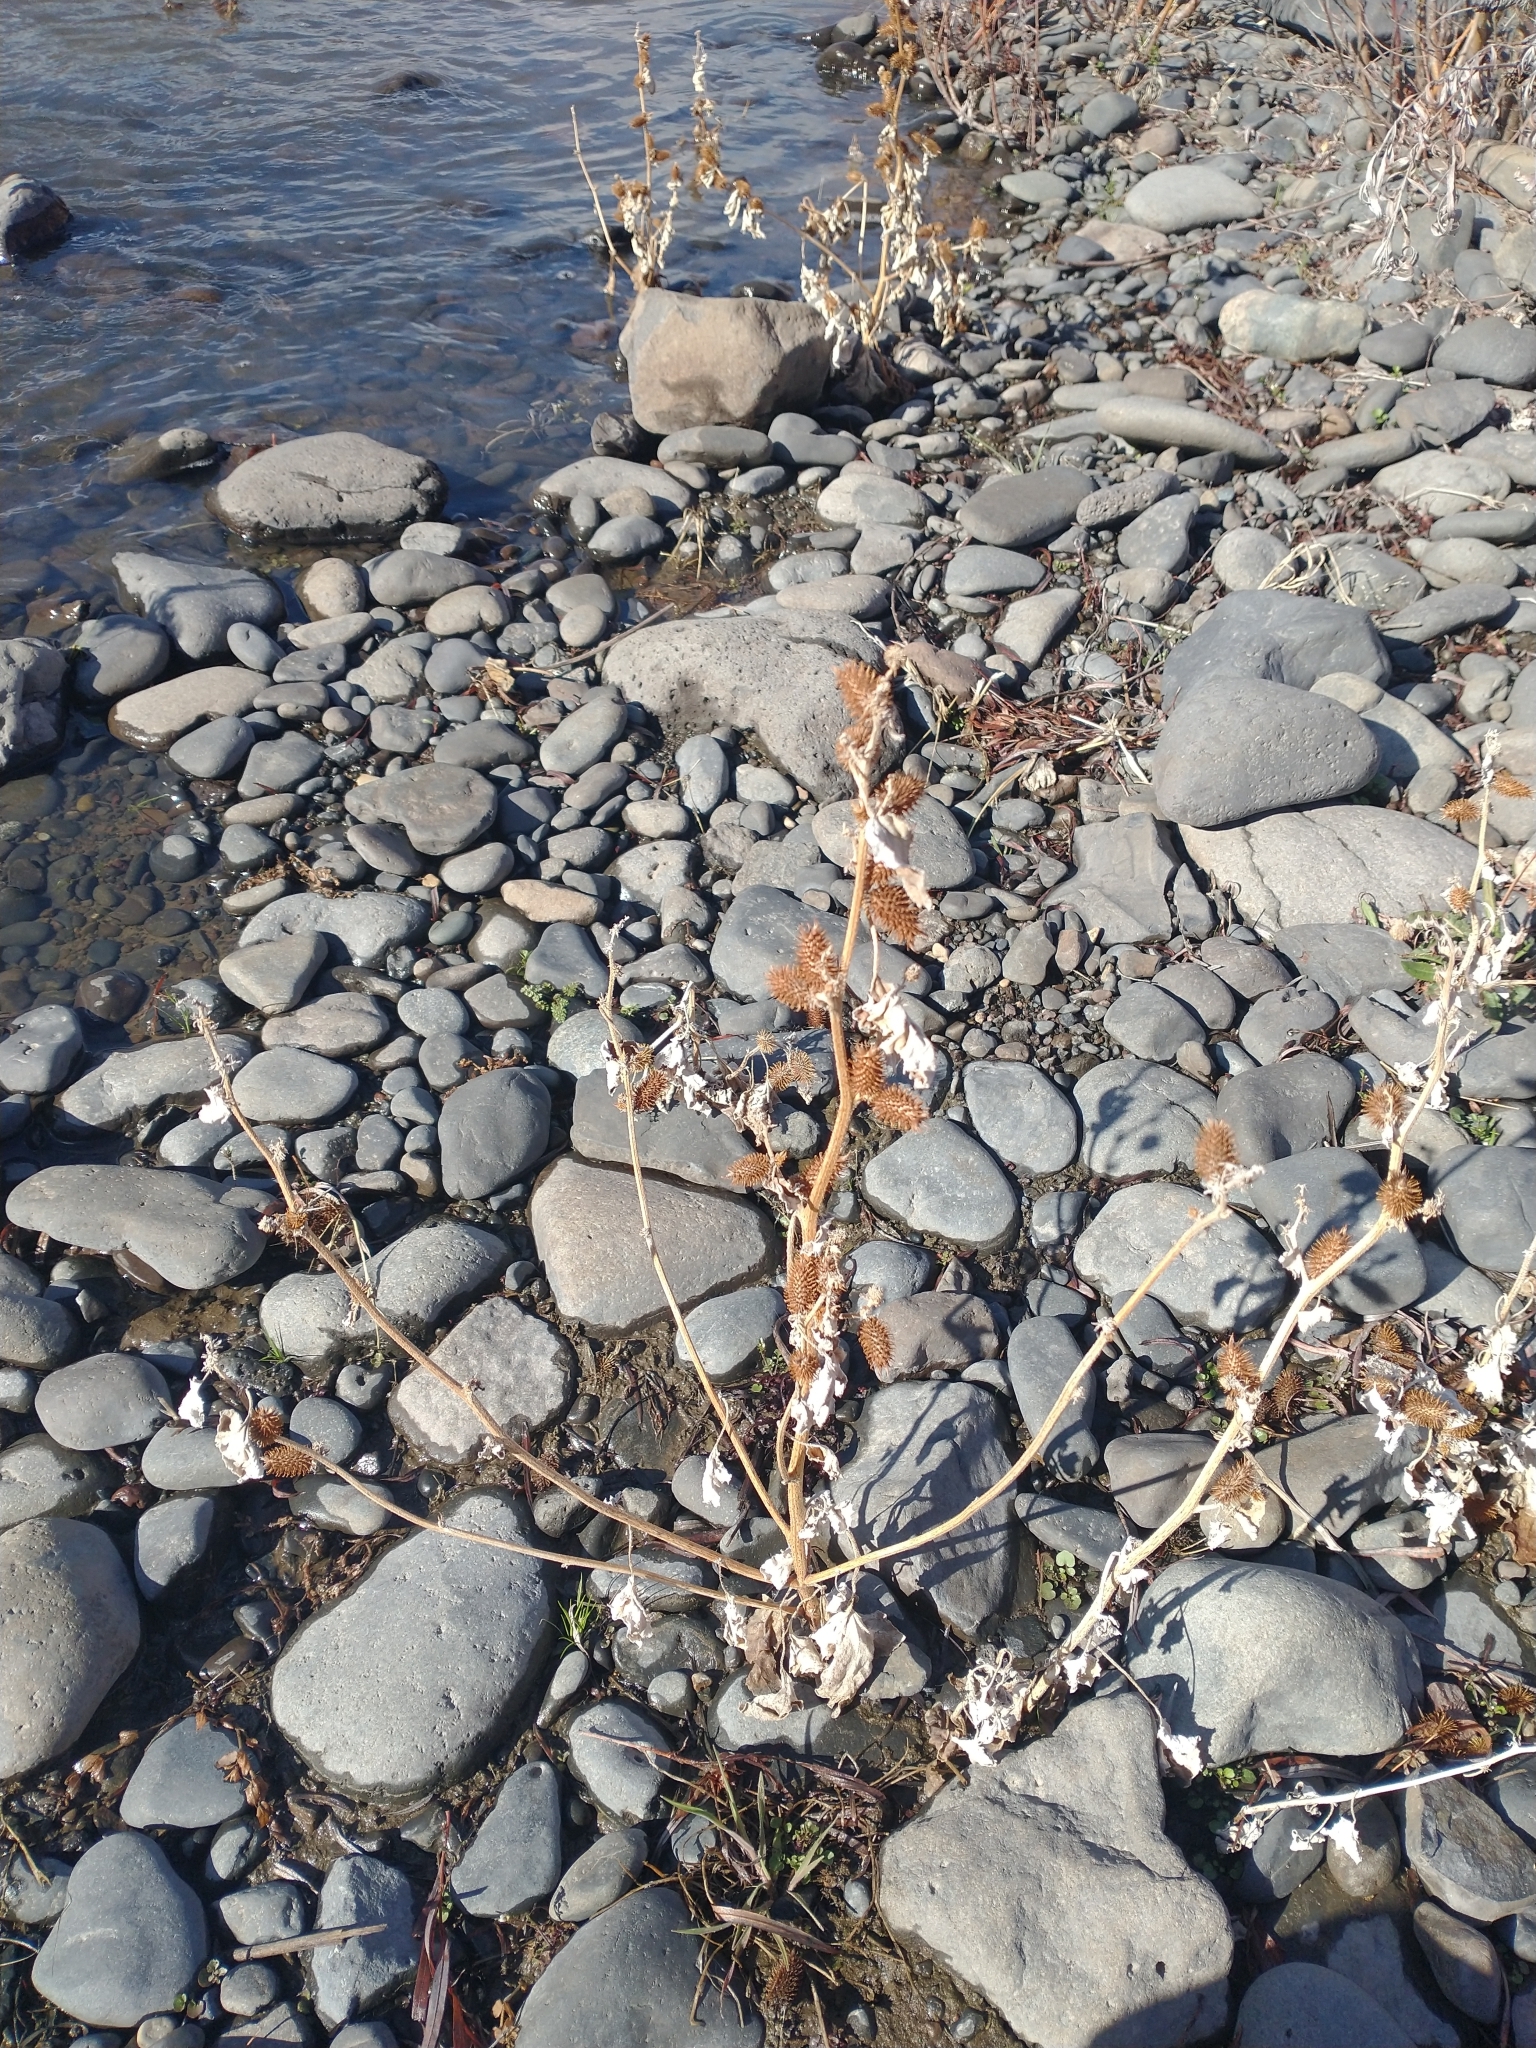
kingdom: Plantae
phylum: Tracheophyta
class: Magnoliopsida
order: Asterales
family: Asteraceae
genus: Xanthium
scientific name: Xanthium strumarium
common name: Rough cocklebur
